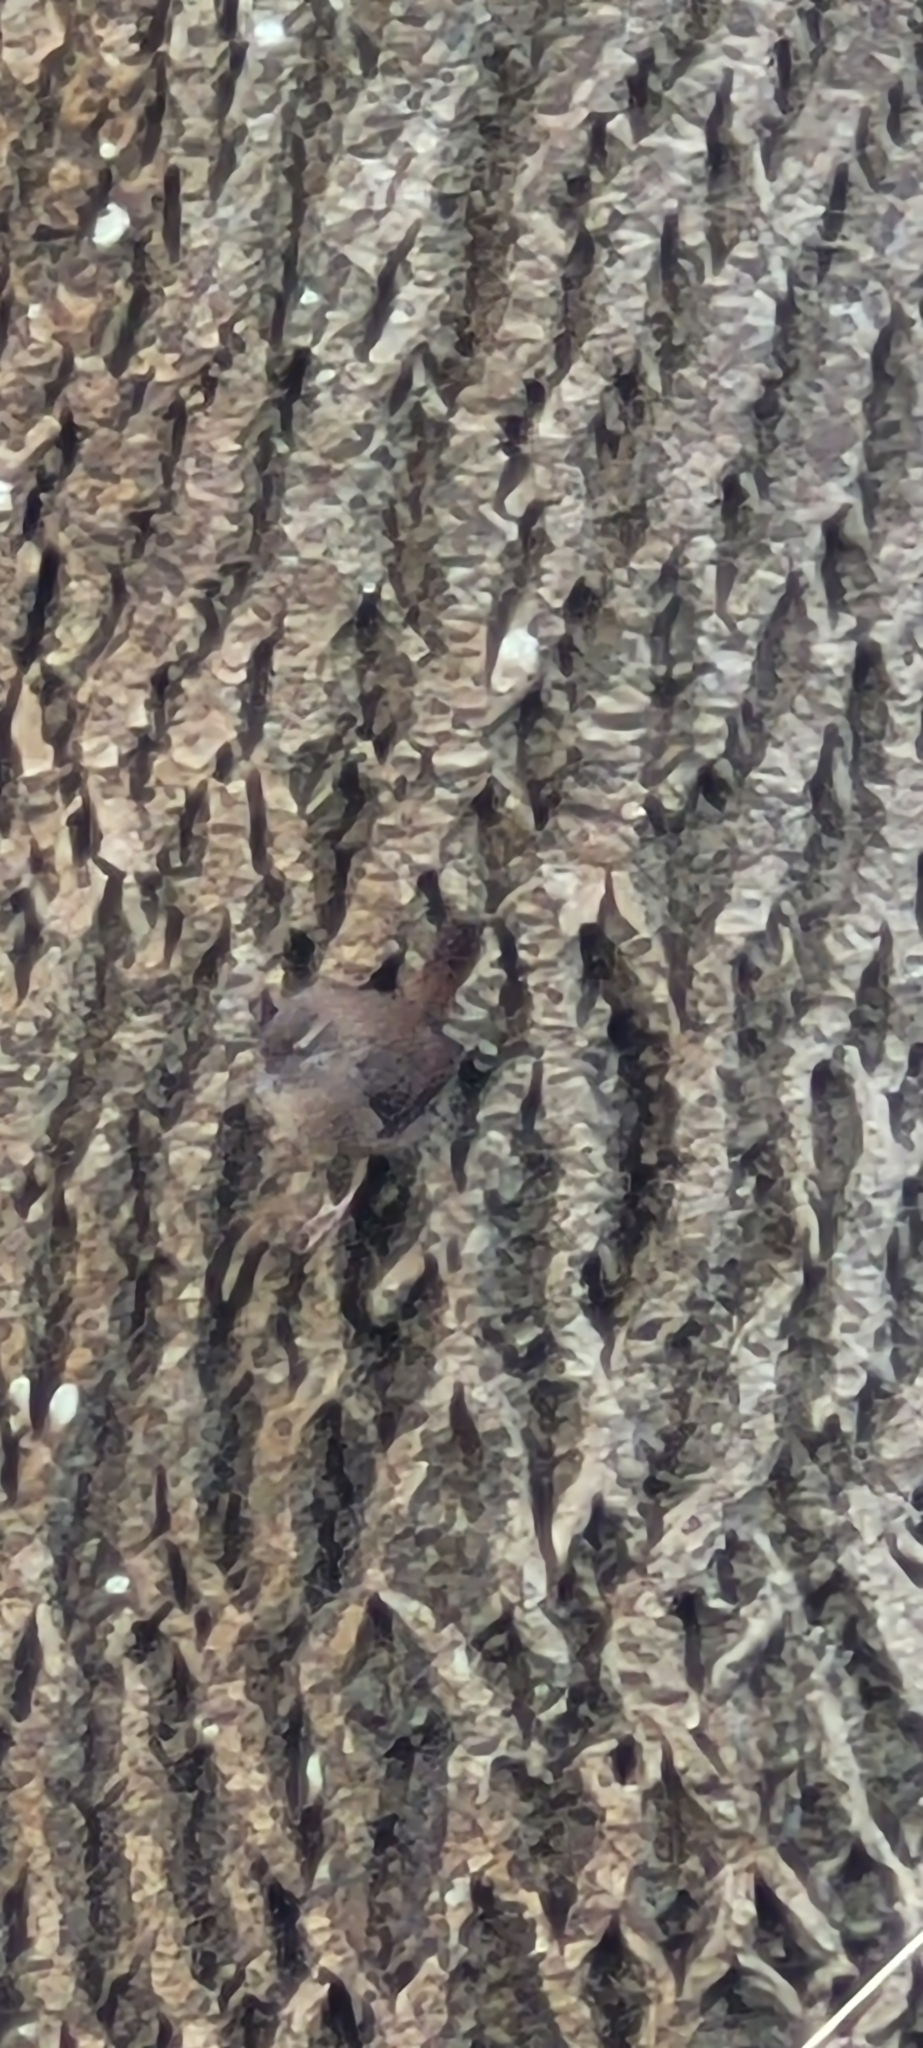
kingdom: Animalia
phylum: Chordata
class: Aves
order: Passeriformes
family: Troglodytidae
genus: Troglodytes
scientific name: Troglodytes troglodytes
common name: Eurasian wren
